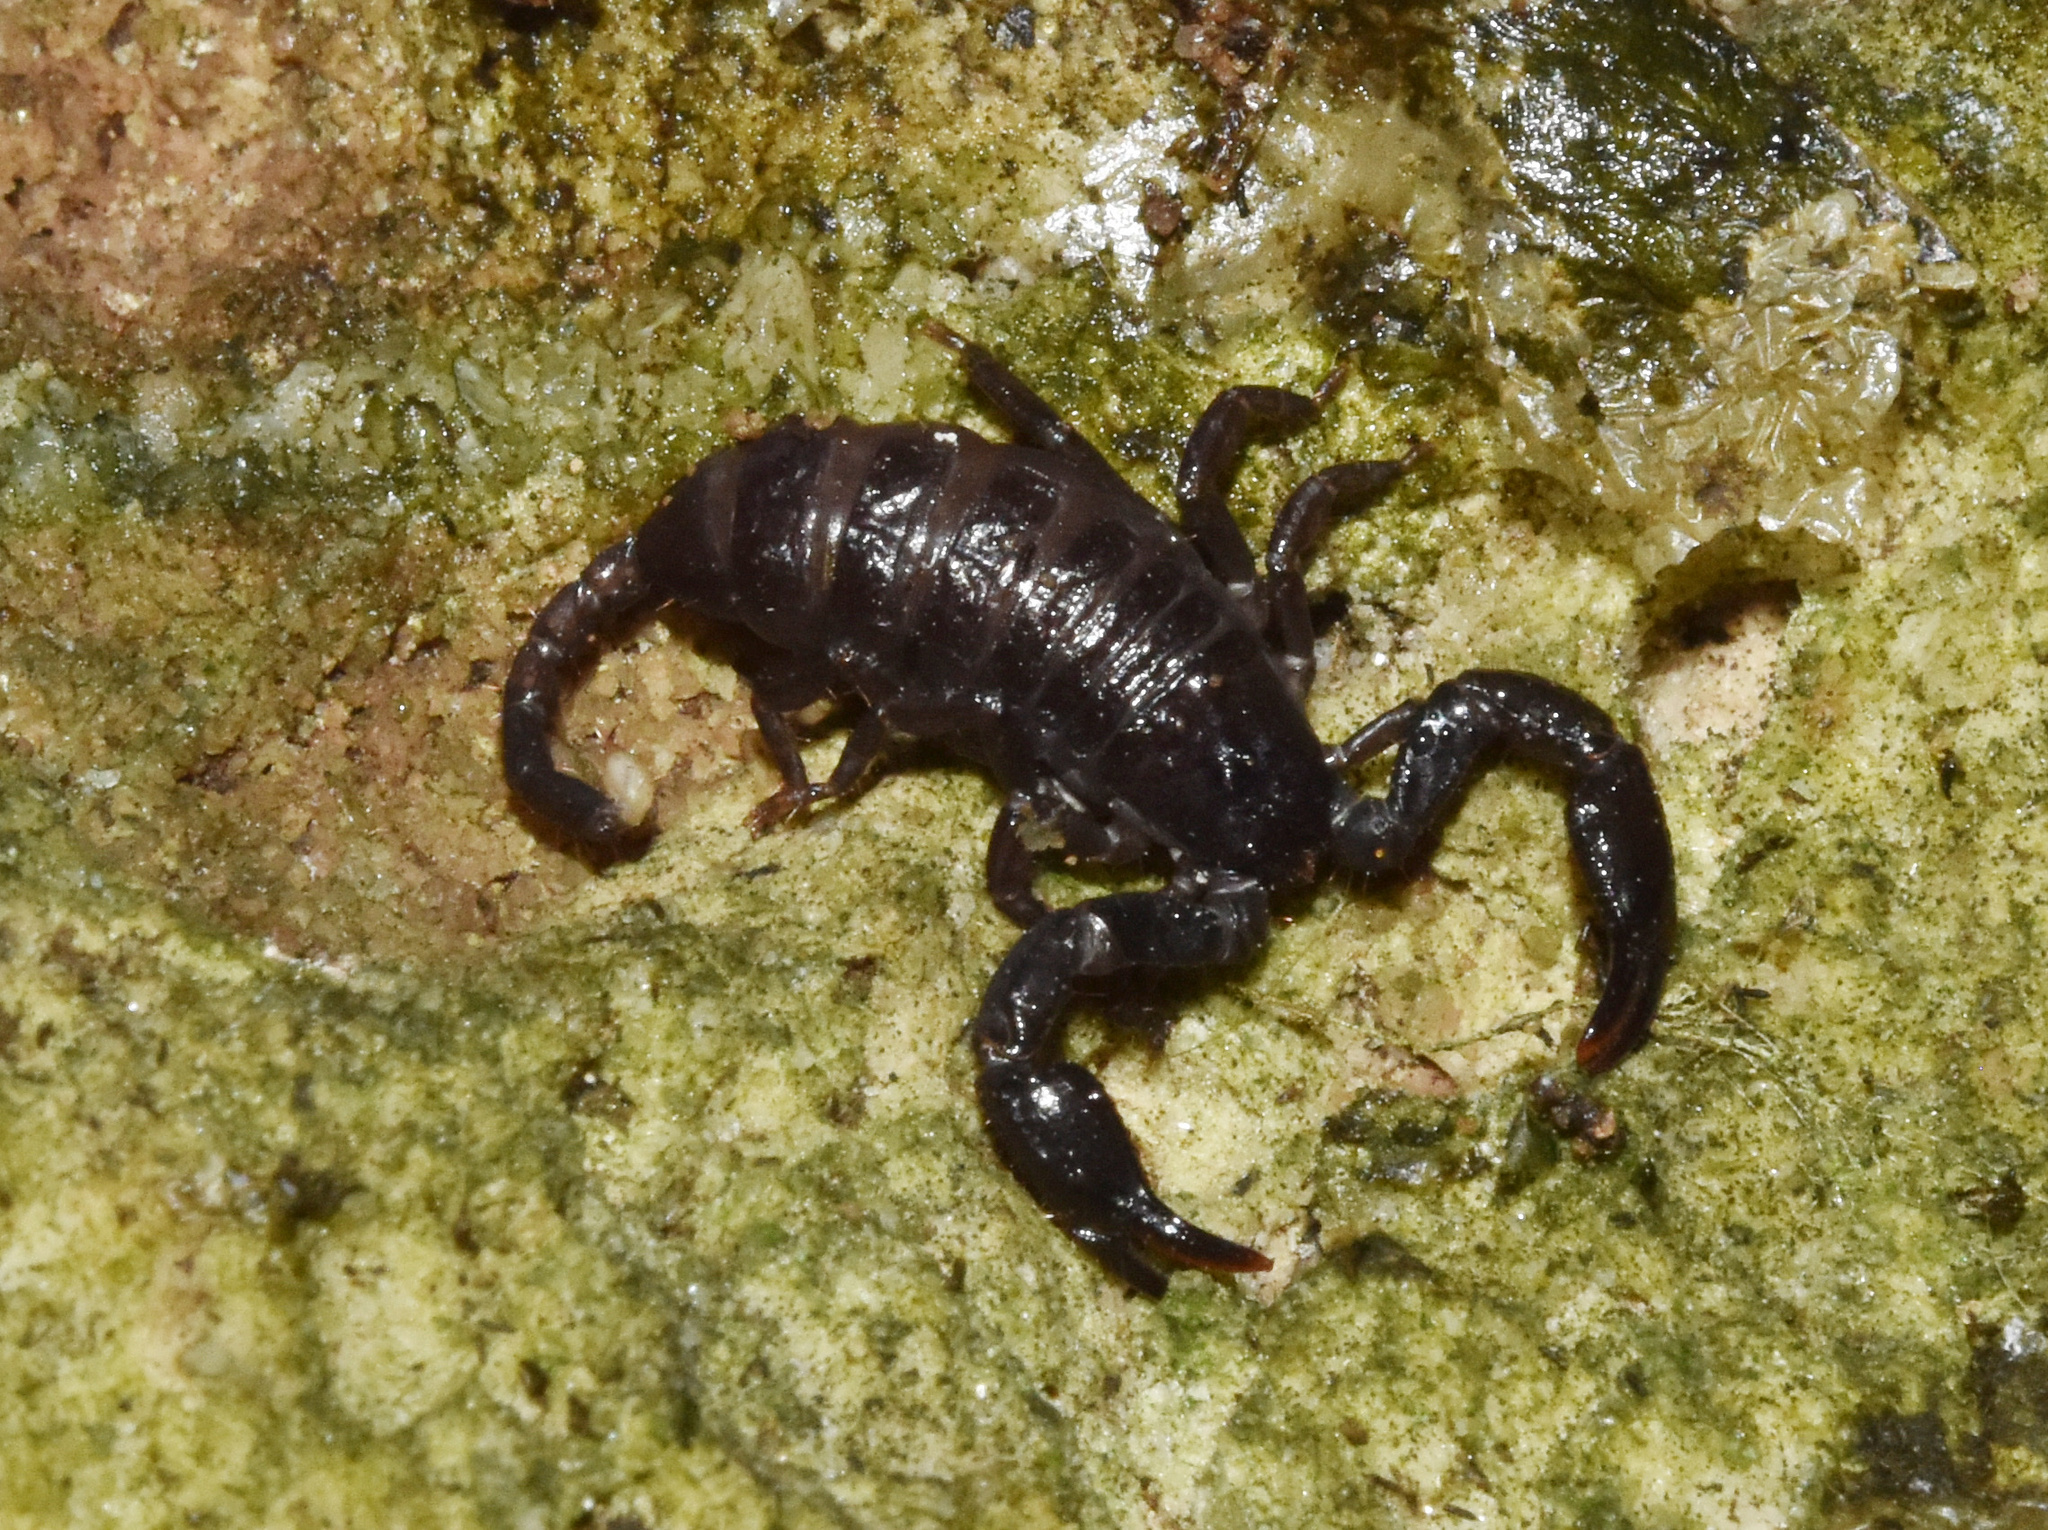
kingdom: Animalia
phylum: Arthropoda
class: Arachnida
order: Scorpiones
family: Hormuridae
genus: Opisthacanthus
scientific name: Opisthacanthus validus
